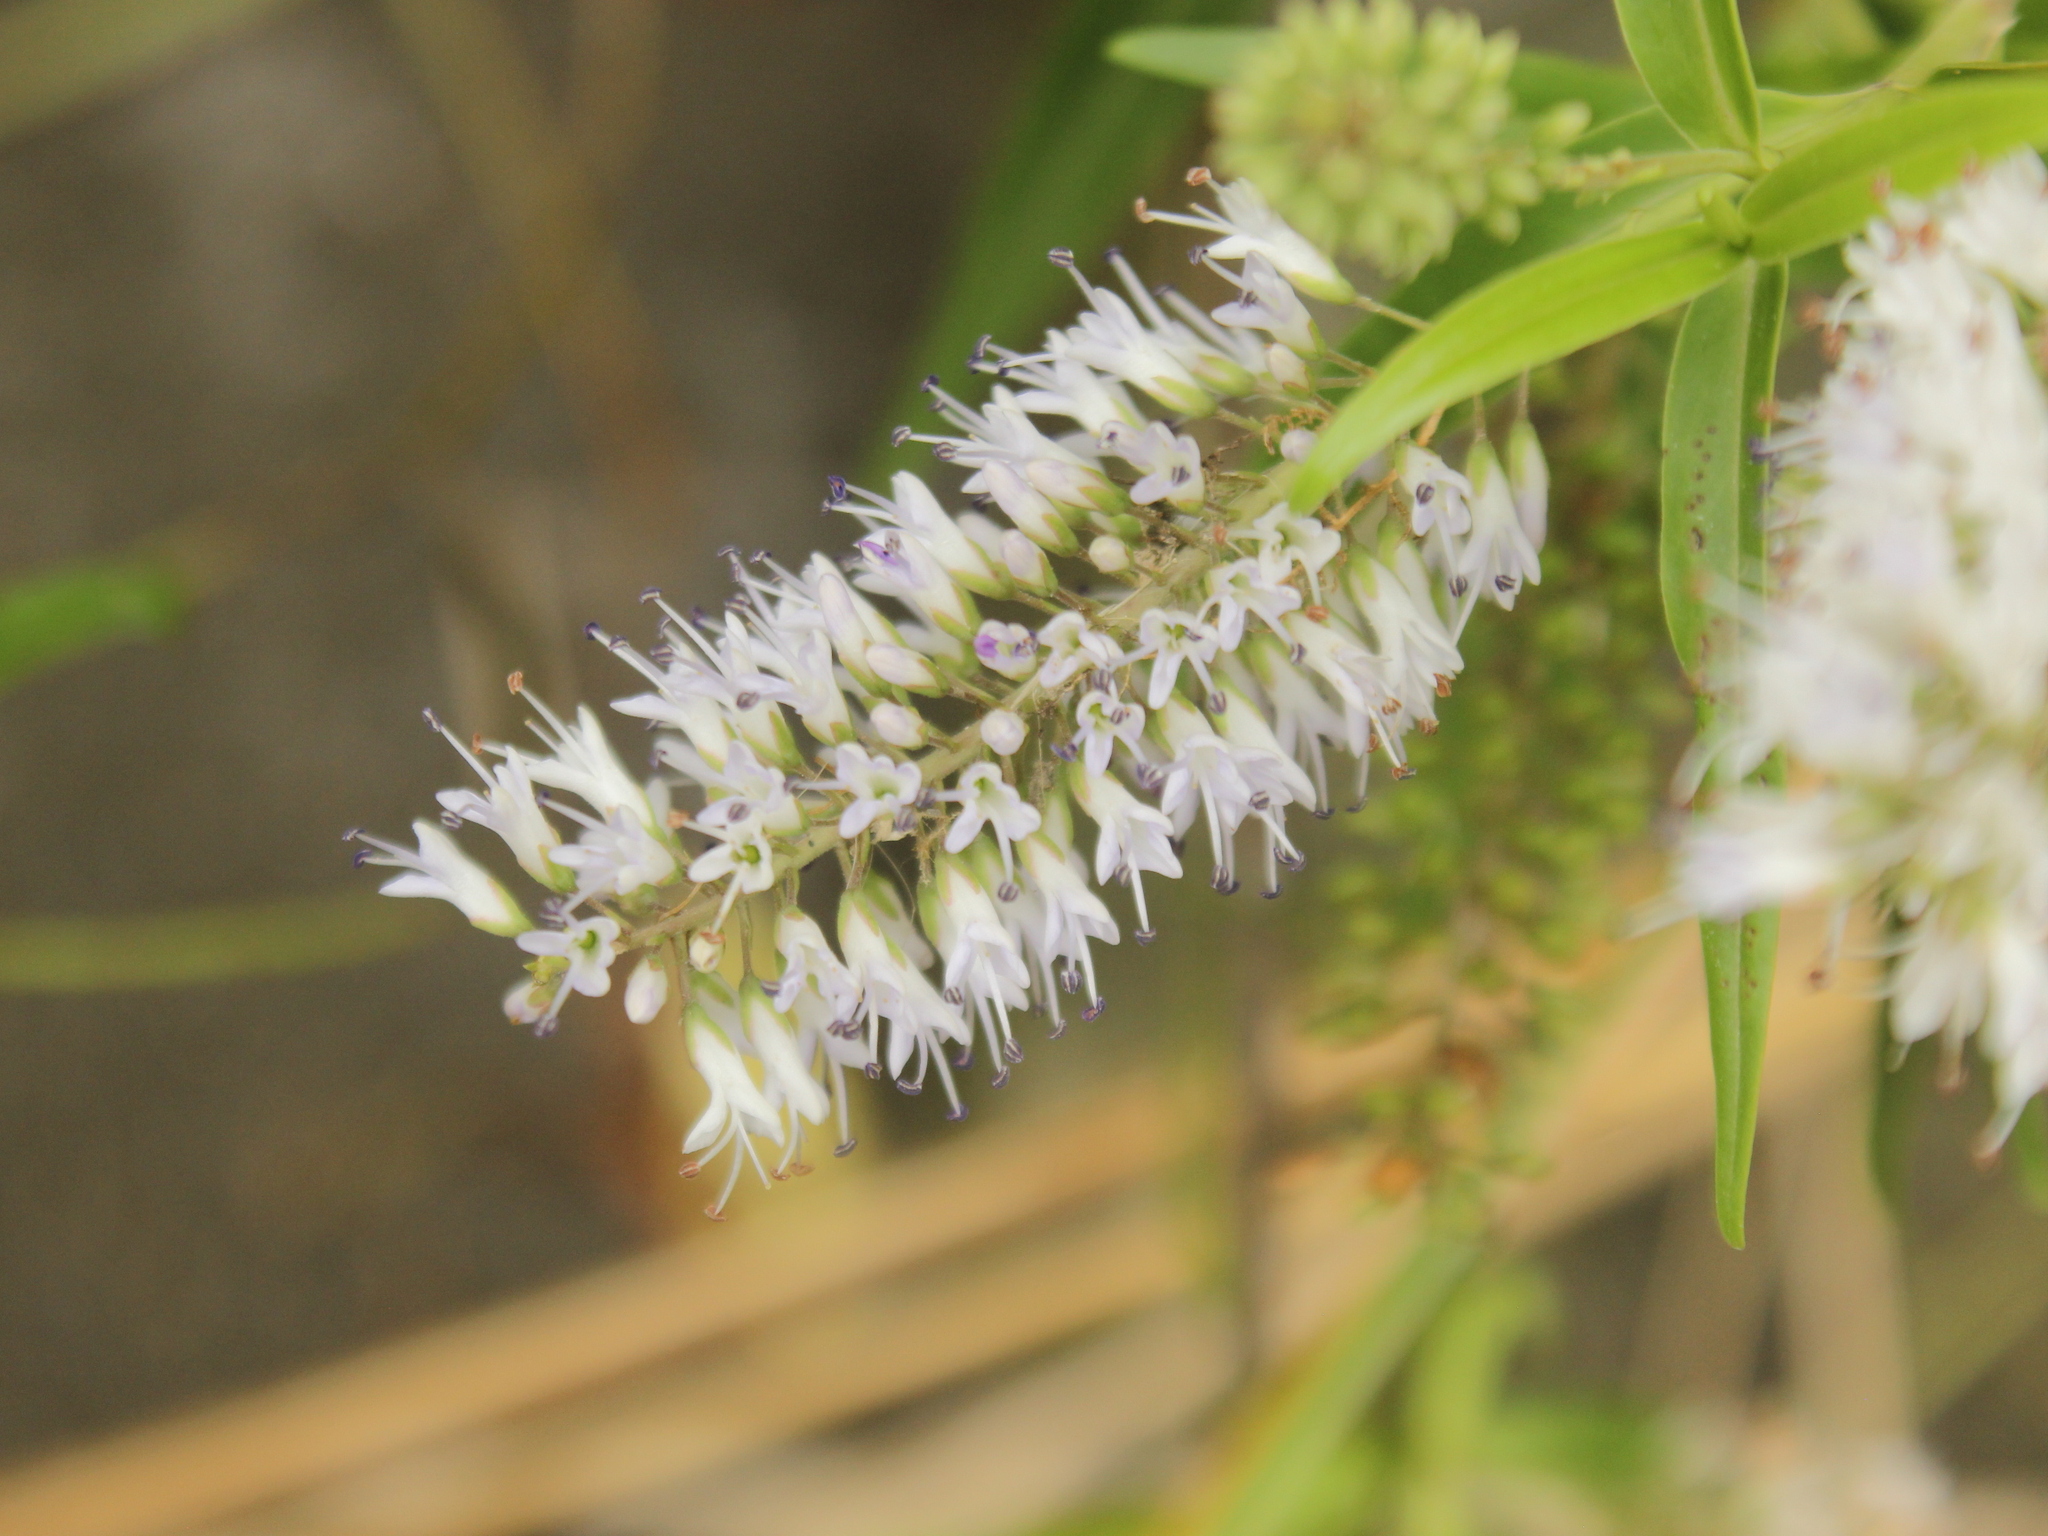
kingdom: Plantae
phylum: Tracheophyta
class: Magnoliopsida
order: Lamiales
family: Plantaginaceae
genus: Veronica
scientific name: Veronica angustissima
